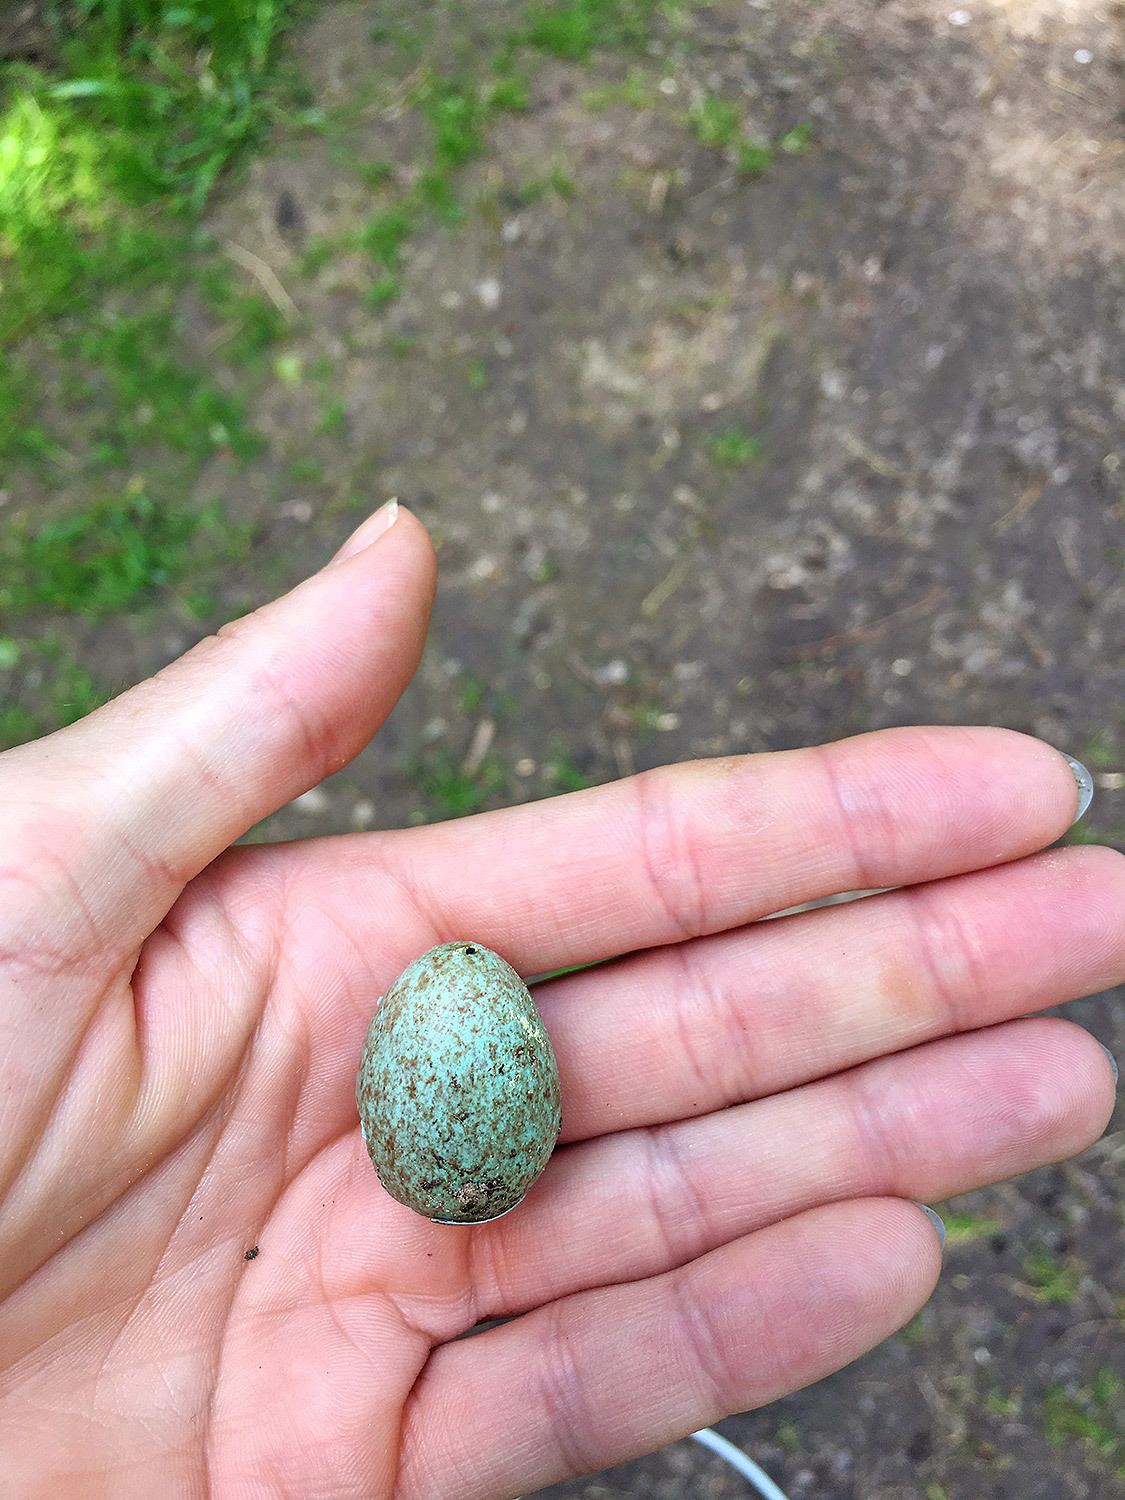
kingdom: Animalia
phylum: Chordata
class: Aves
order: Passeriformes
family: Turdidae
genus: Turdus
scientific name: Turdus merula
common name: Common blackbird
